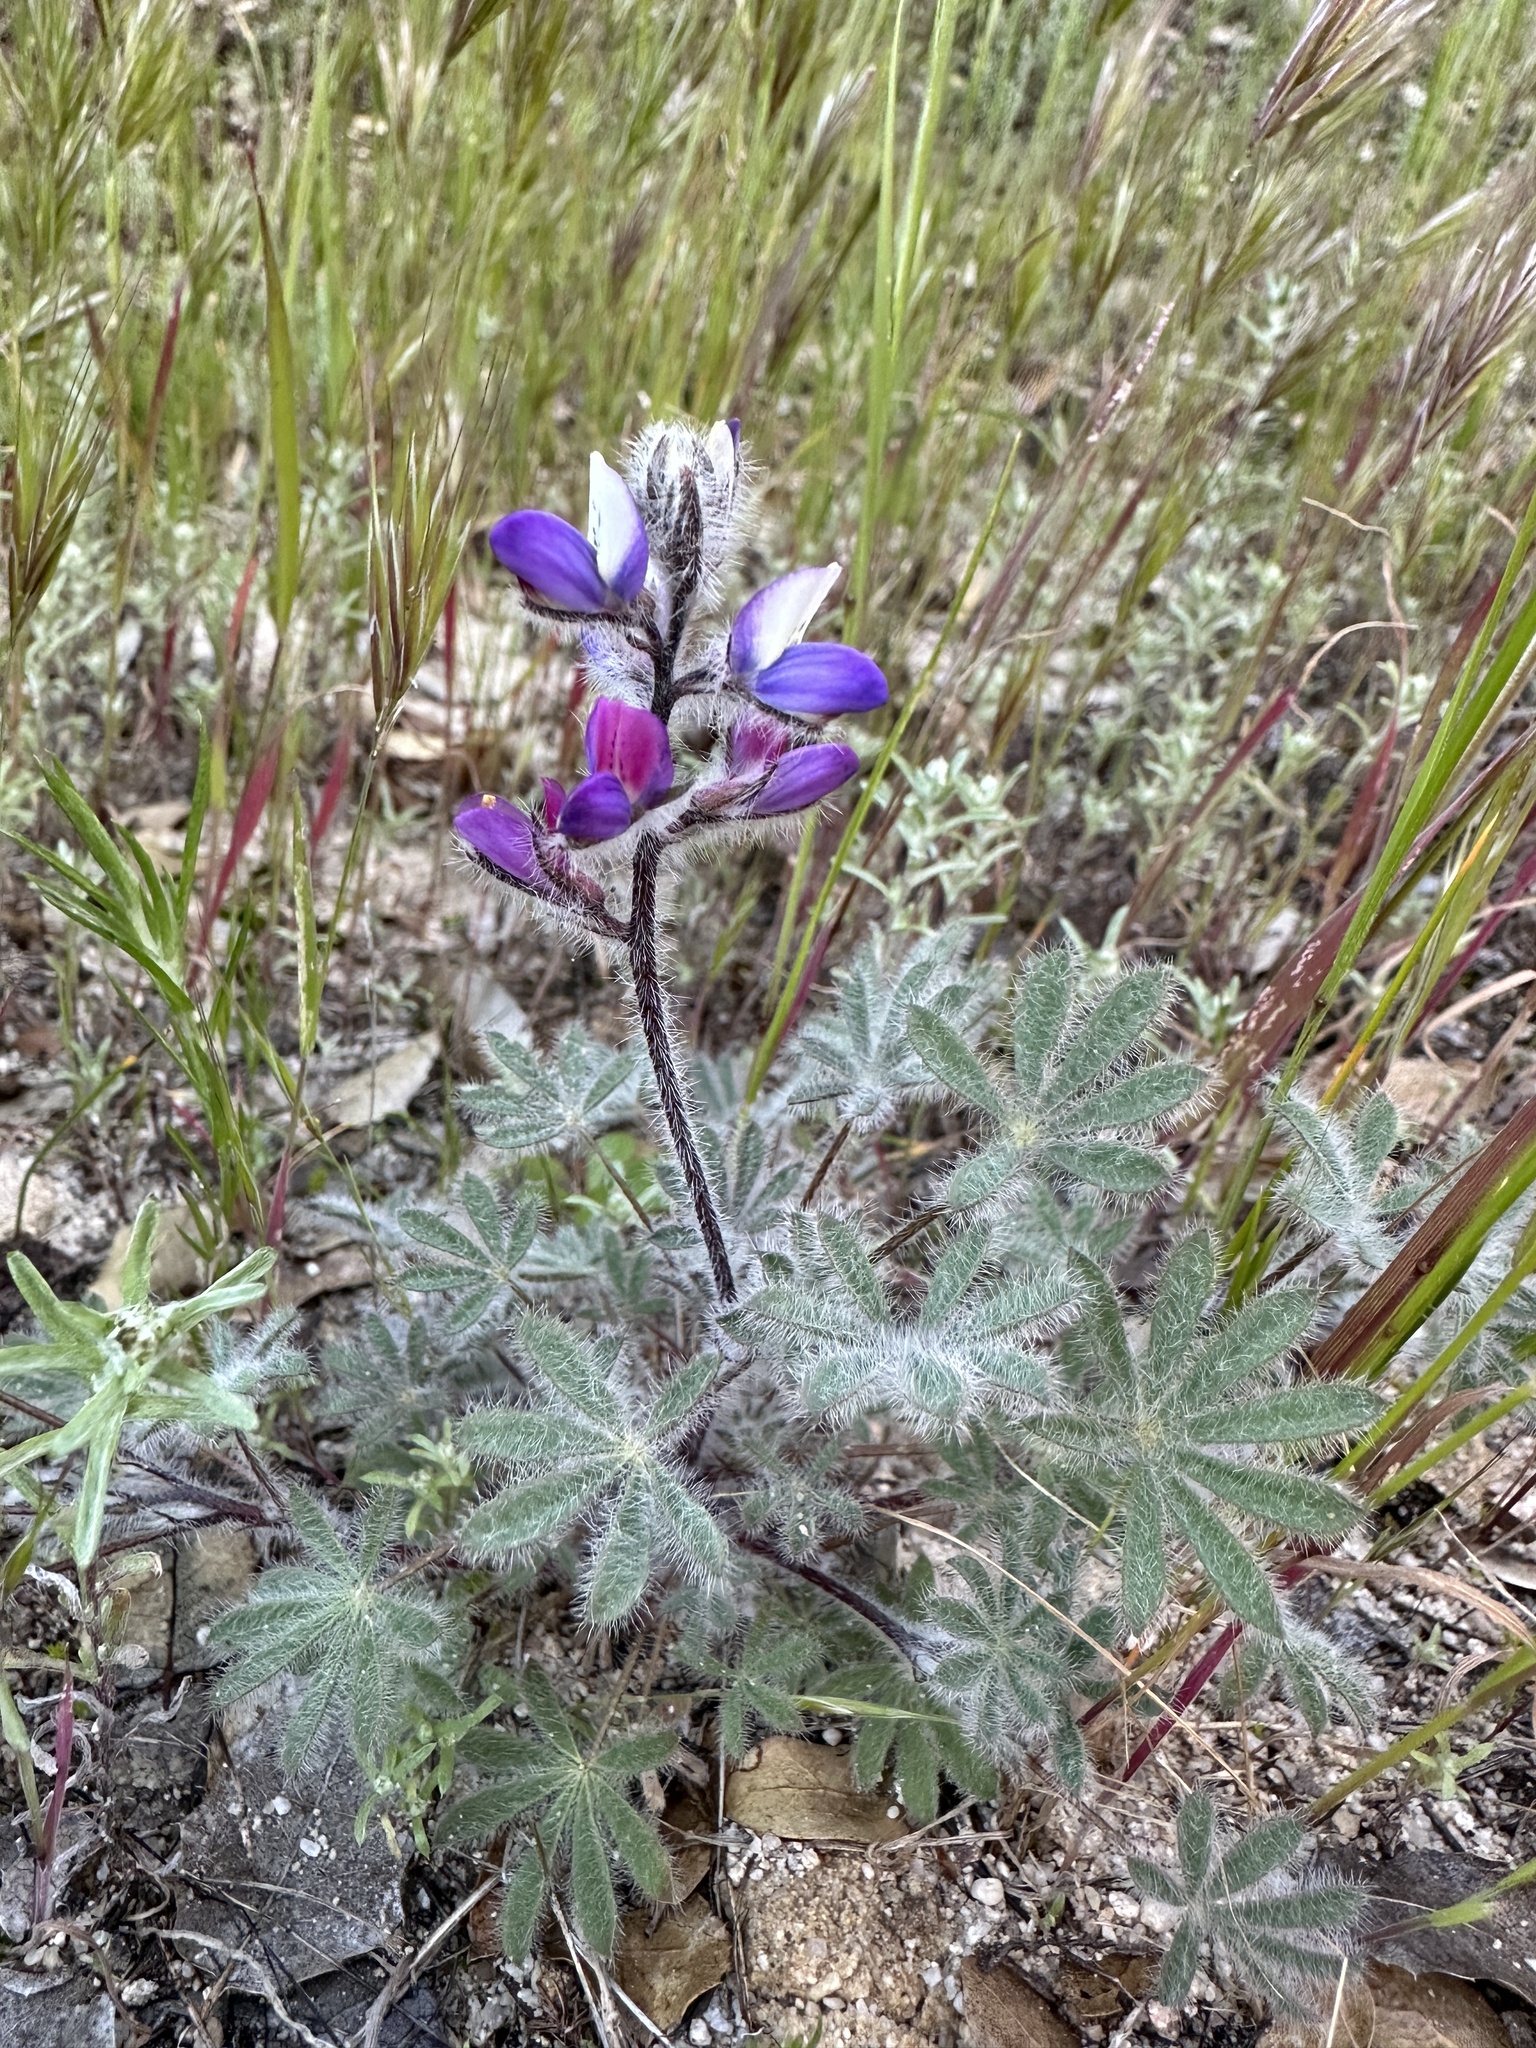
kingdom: Plantae
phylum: Tracheophyta
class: Magnoliopsida
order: Fabales
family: Fabaceae
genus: Lupinus
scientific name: Lupinus concinnus
